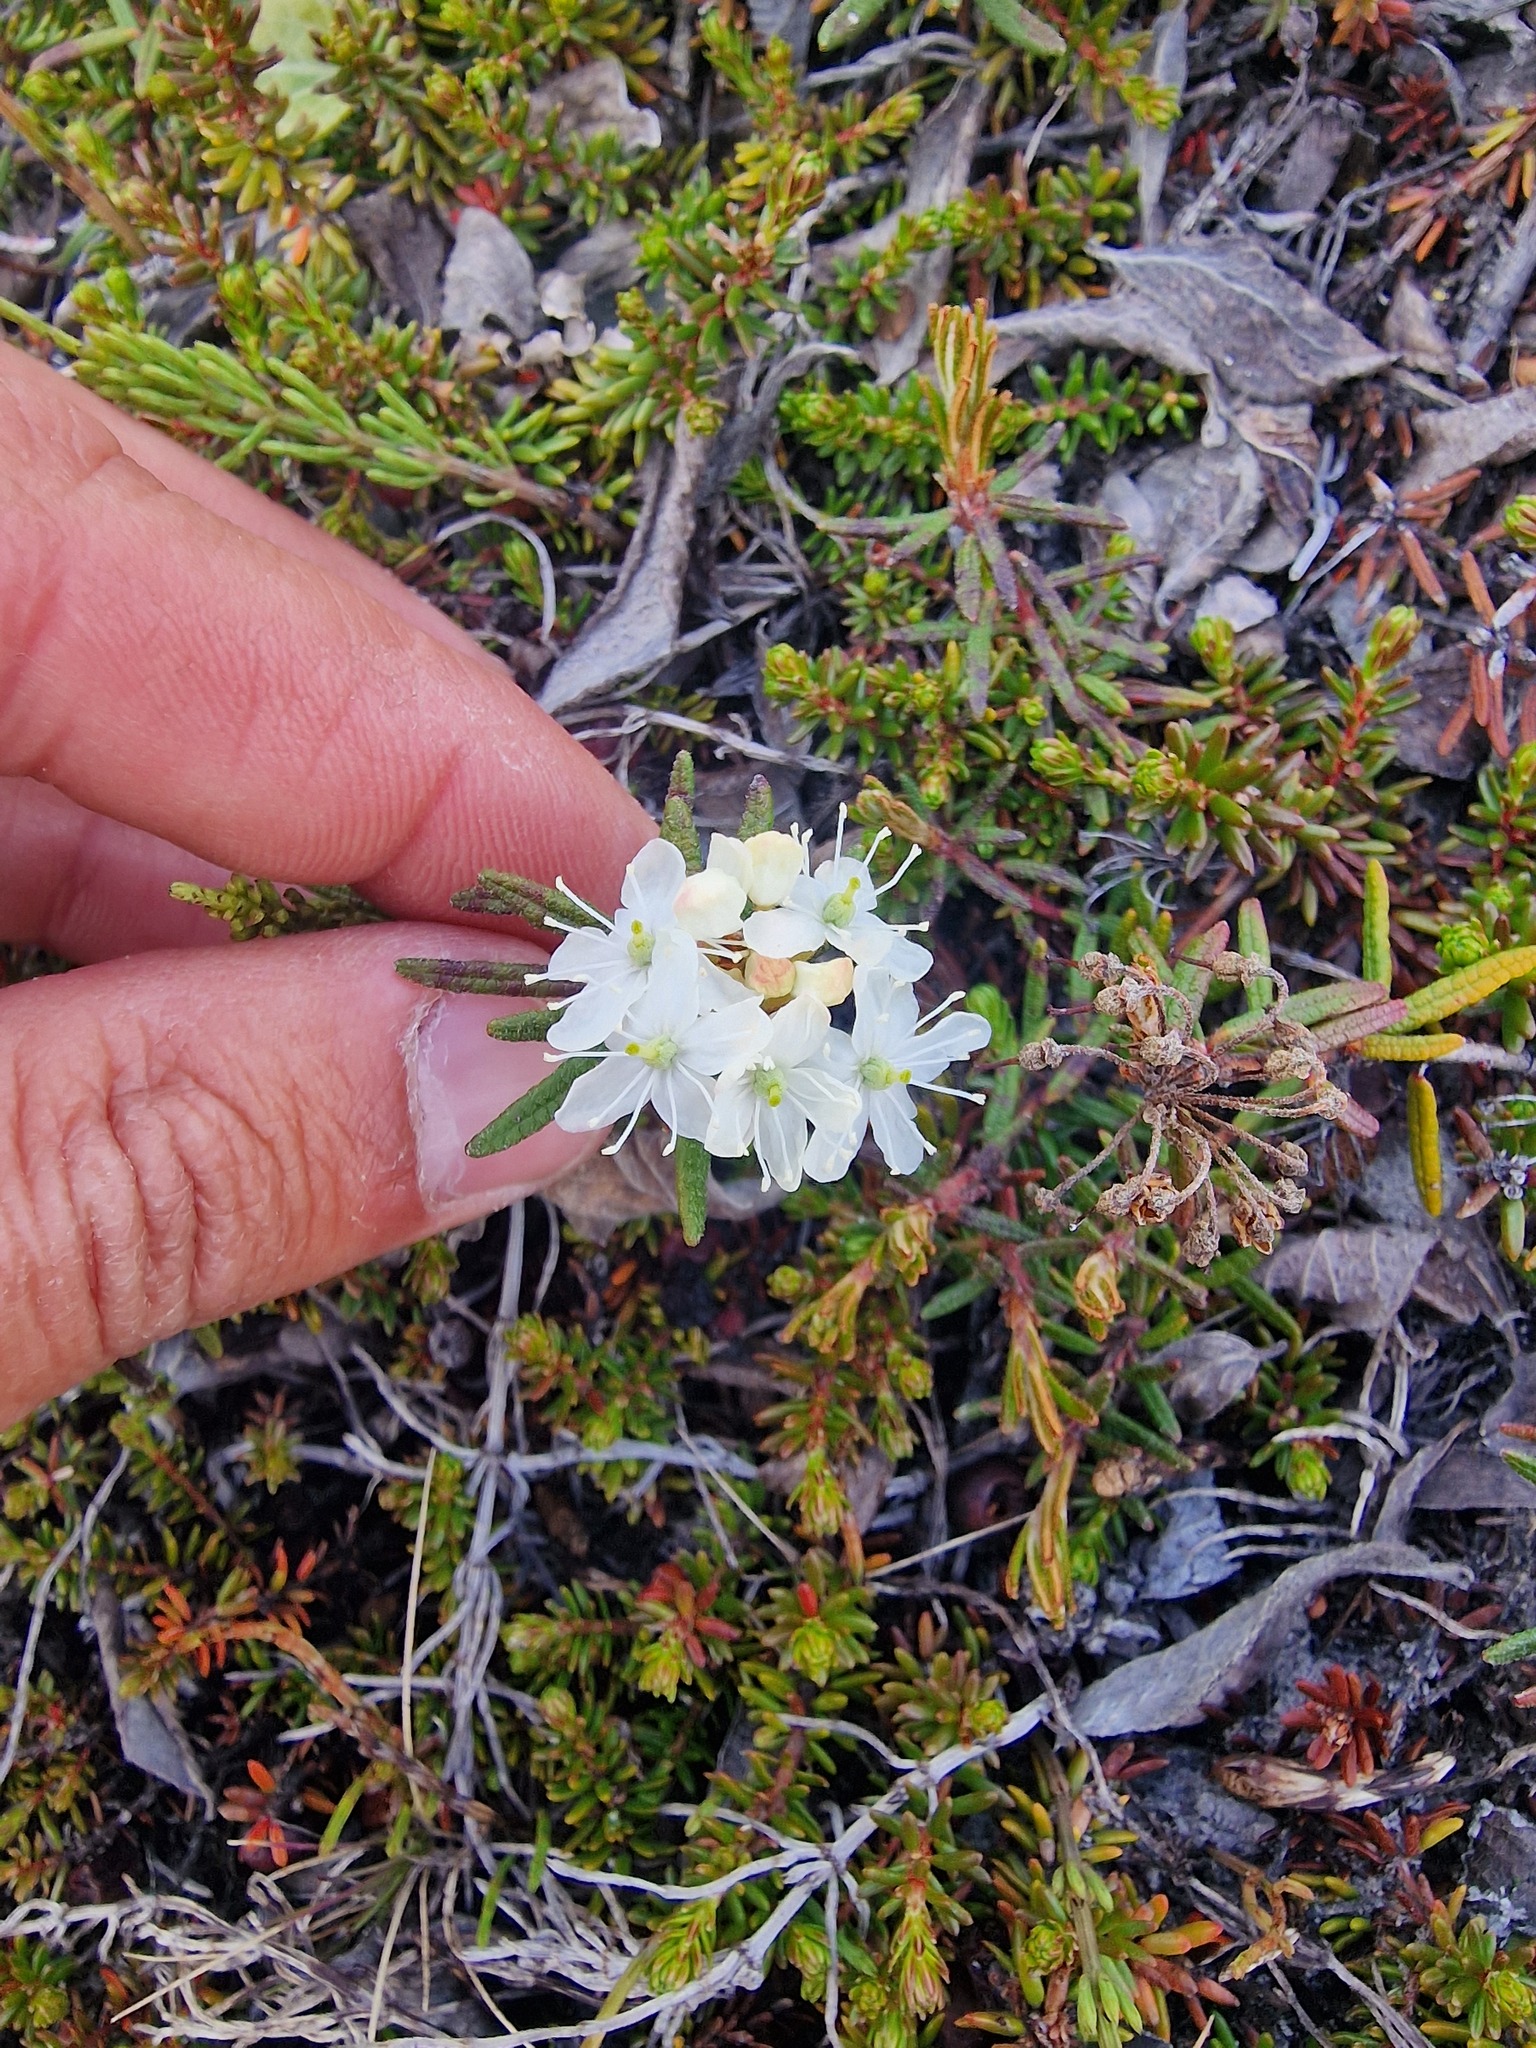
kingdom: Plantae
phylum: Tracheophyta
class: Magnoliopsida
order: Ericales
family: Ericaceae
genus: Rhododendron
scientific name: Rhododendron tomentosum
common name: Marsh labrador tea
